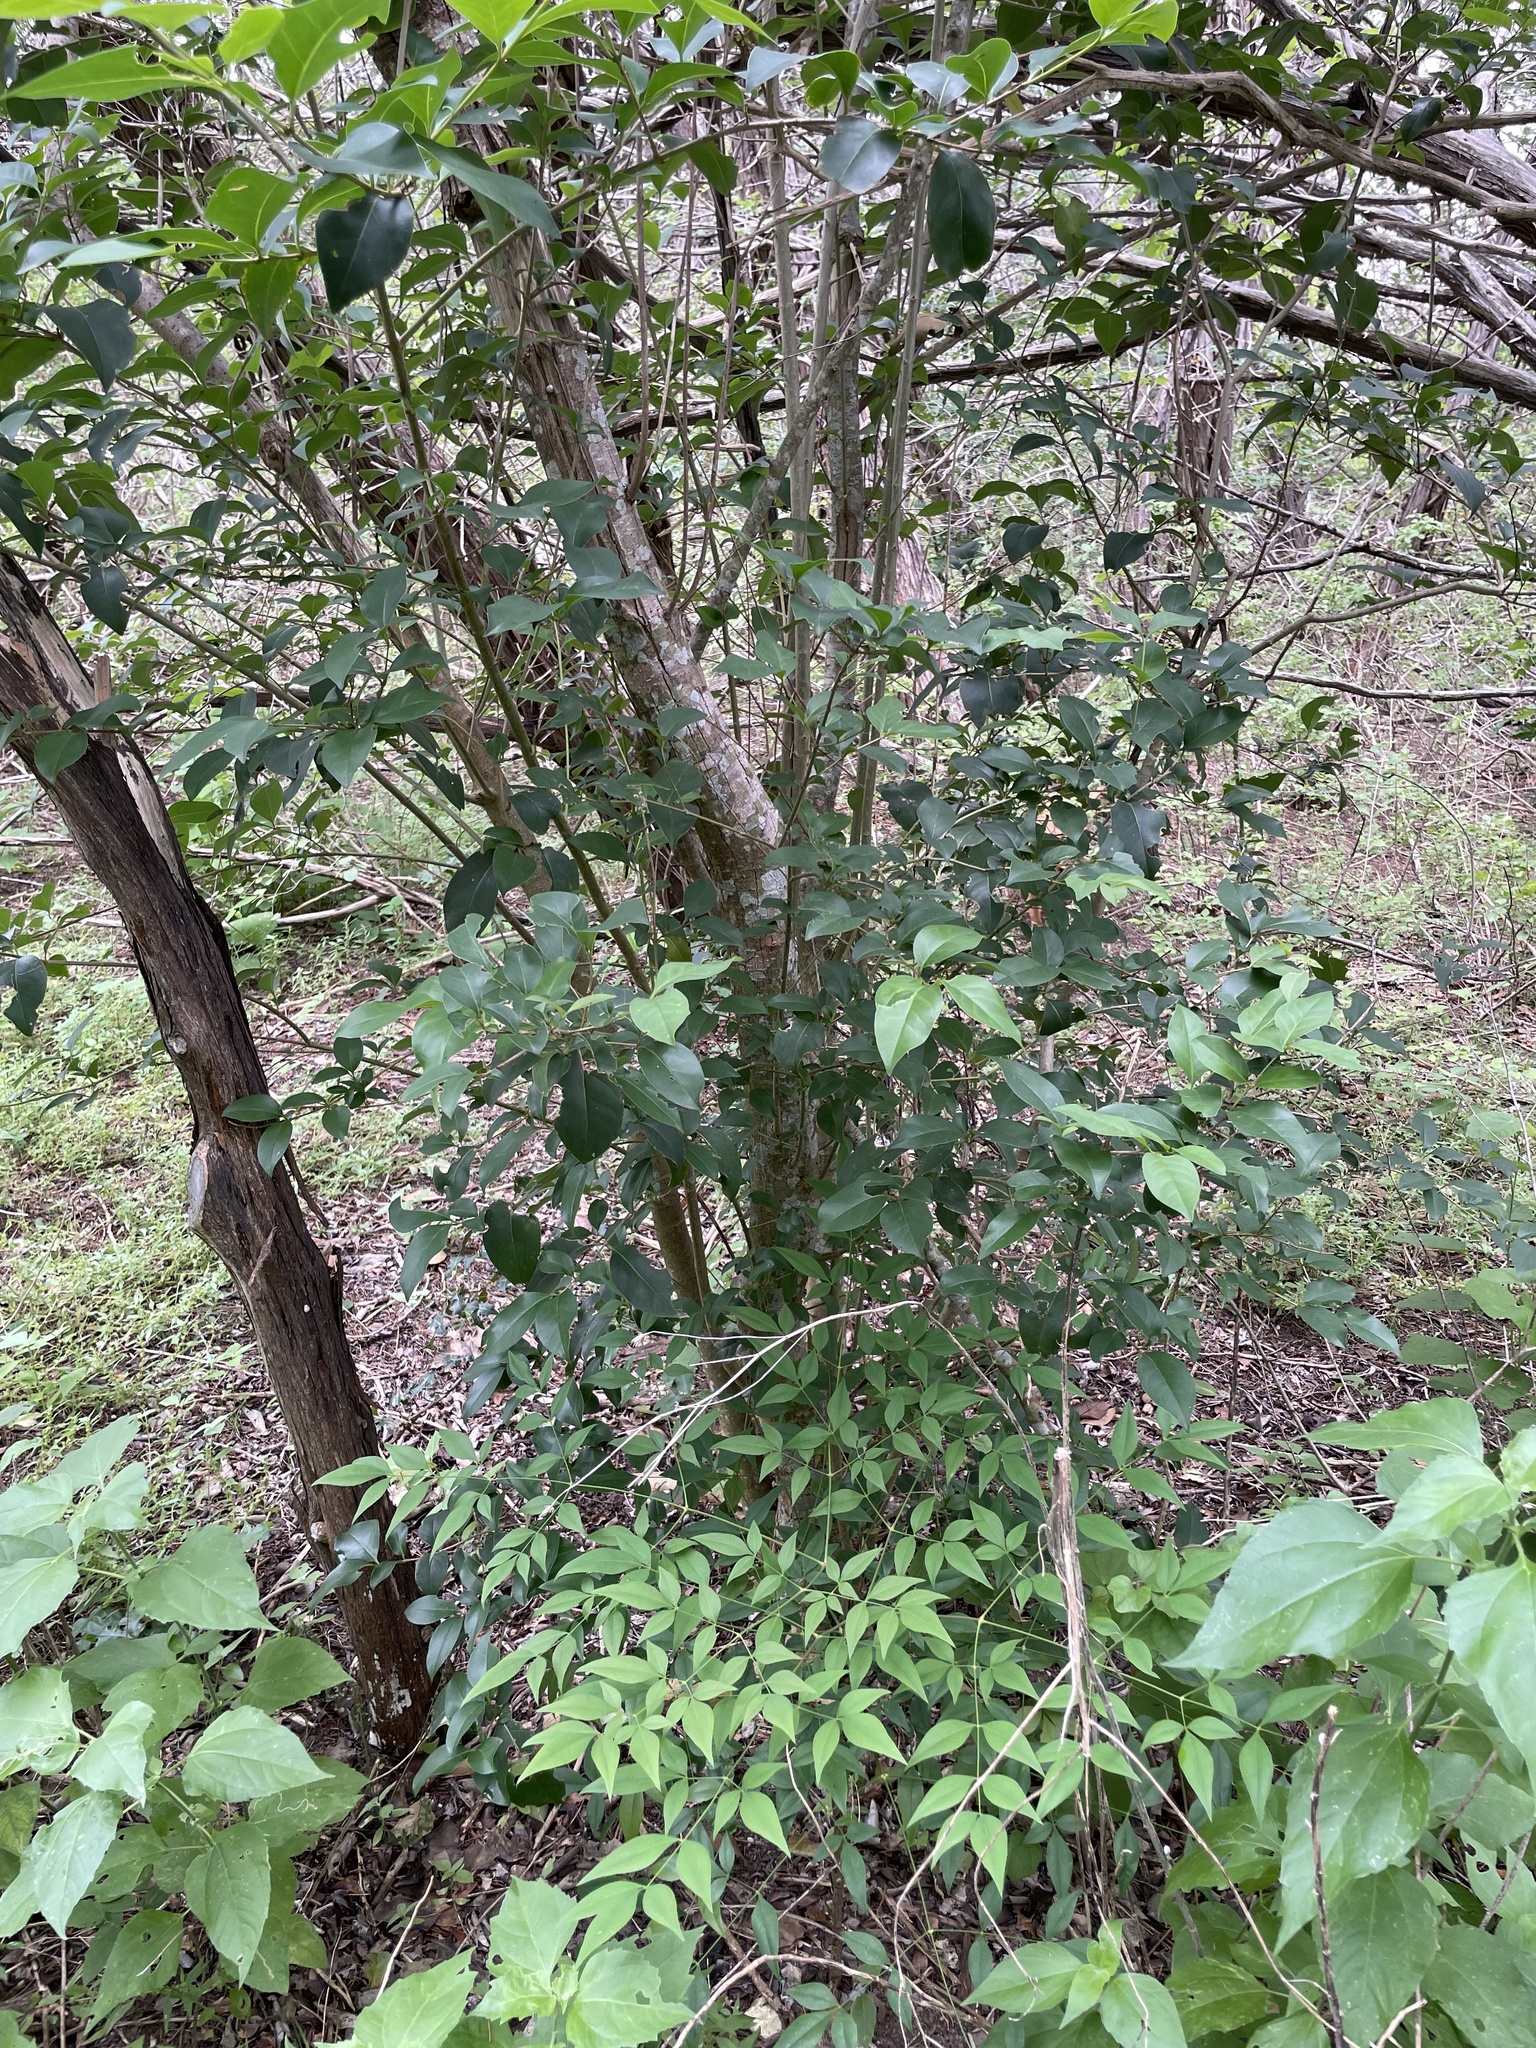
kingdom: Plantae
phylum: Tracheophyta
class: Magnoliopsida
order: Lamiales
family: Oleaceae
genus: Ligustrum
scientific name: Ligustrum lucidum
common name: Glossy privet
